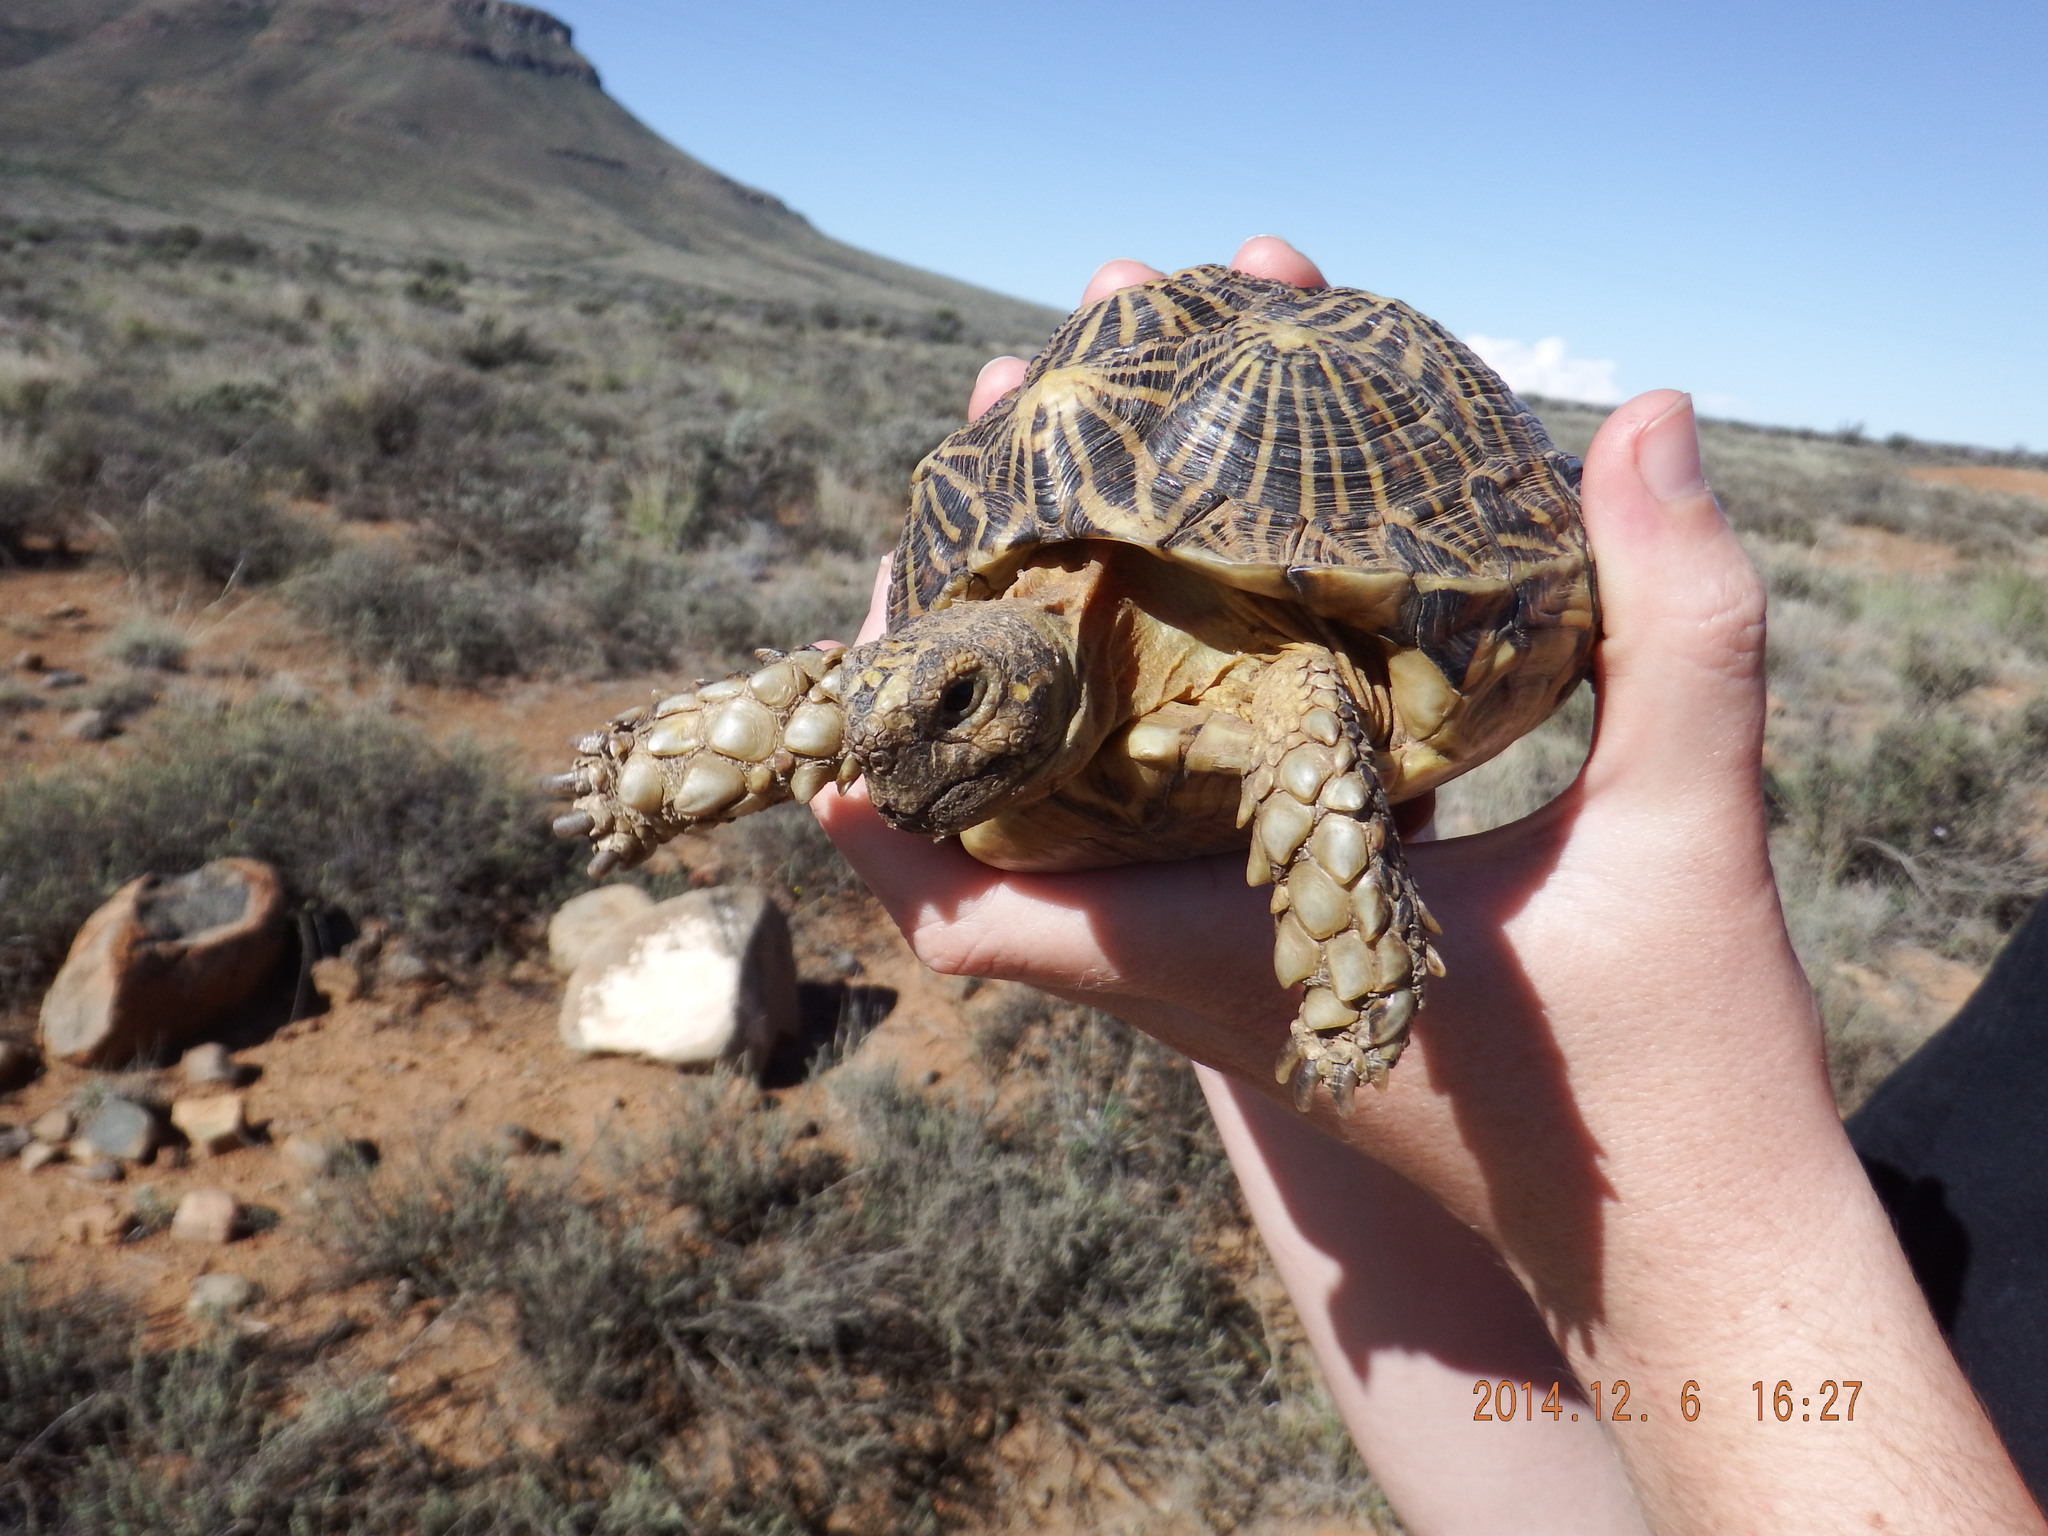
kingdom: Animalia
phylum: Chordata
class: Testudines
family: Testudinidae
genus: Psammobates
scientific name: Psammobates tentorius
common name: Tent tortoise
